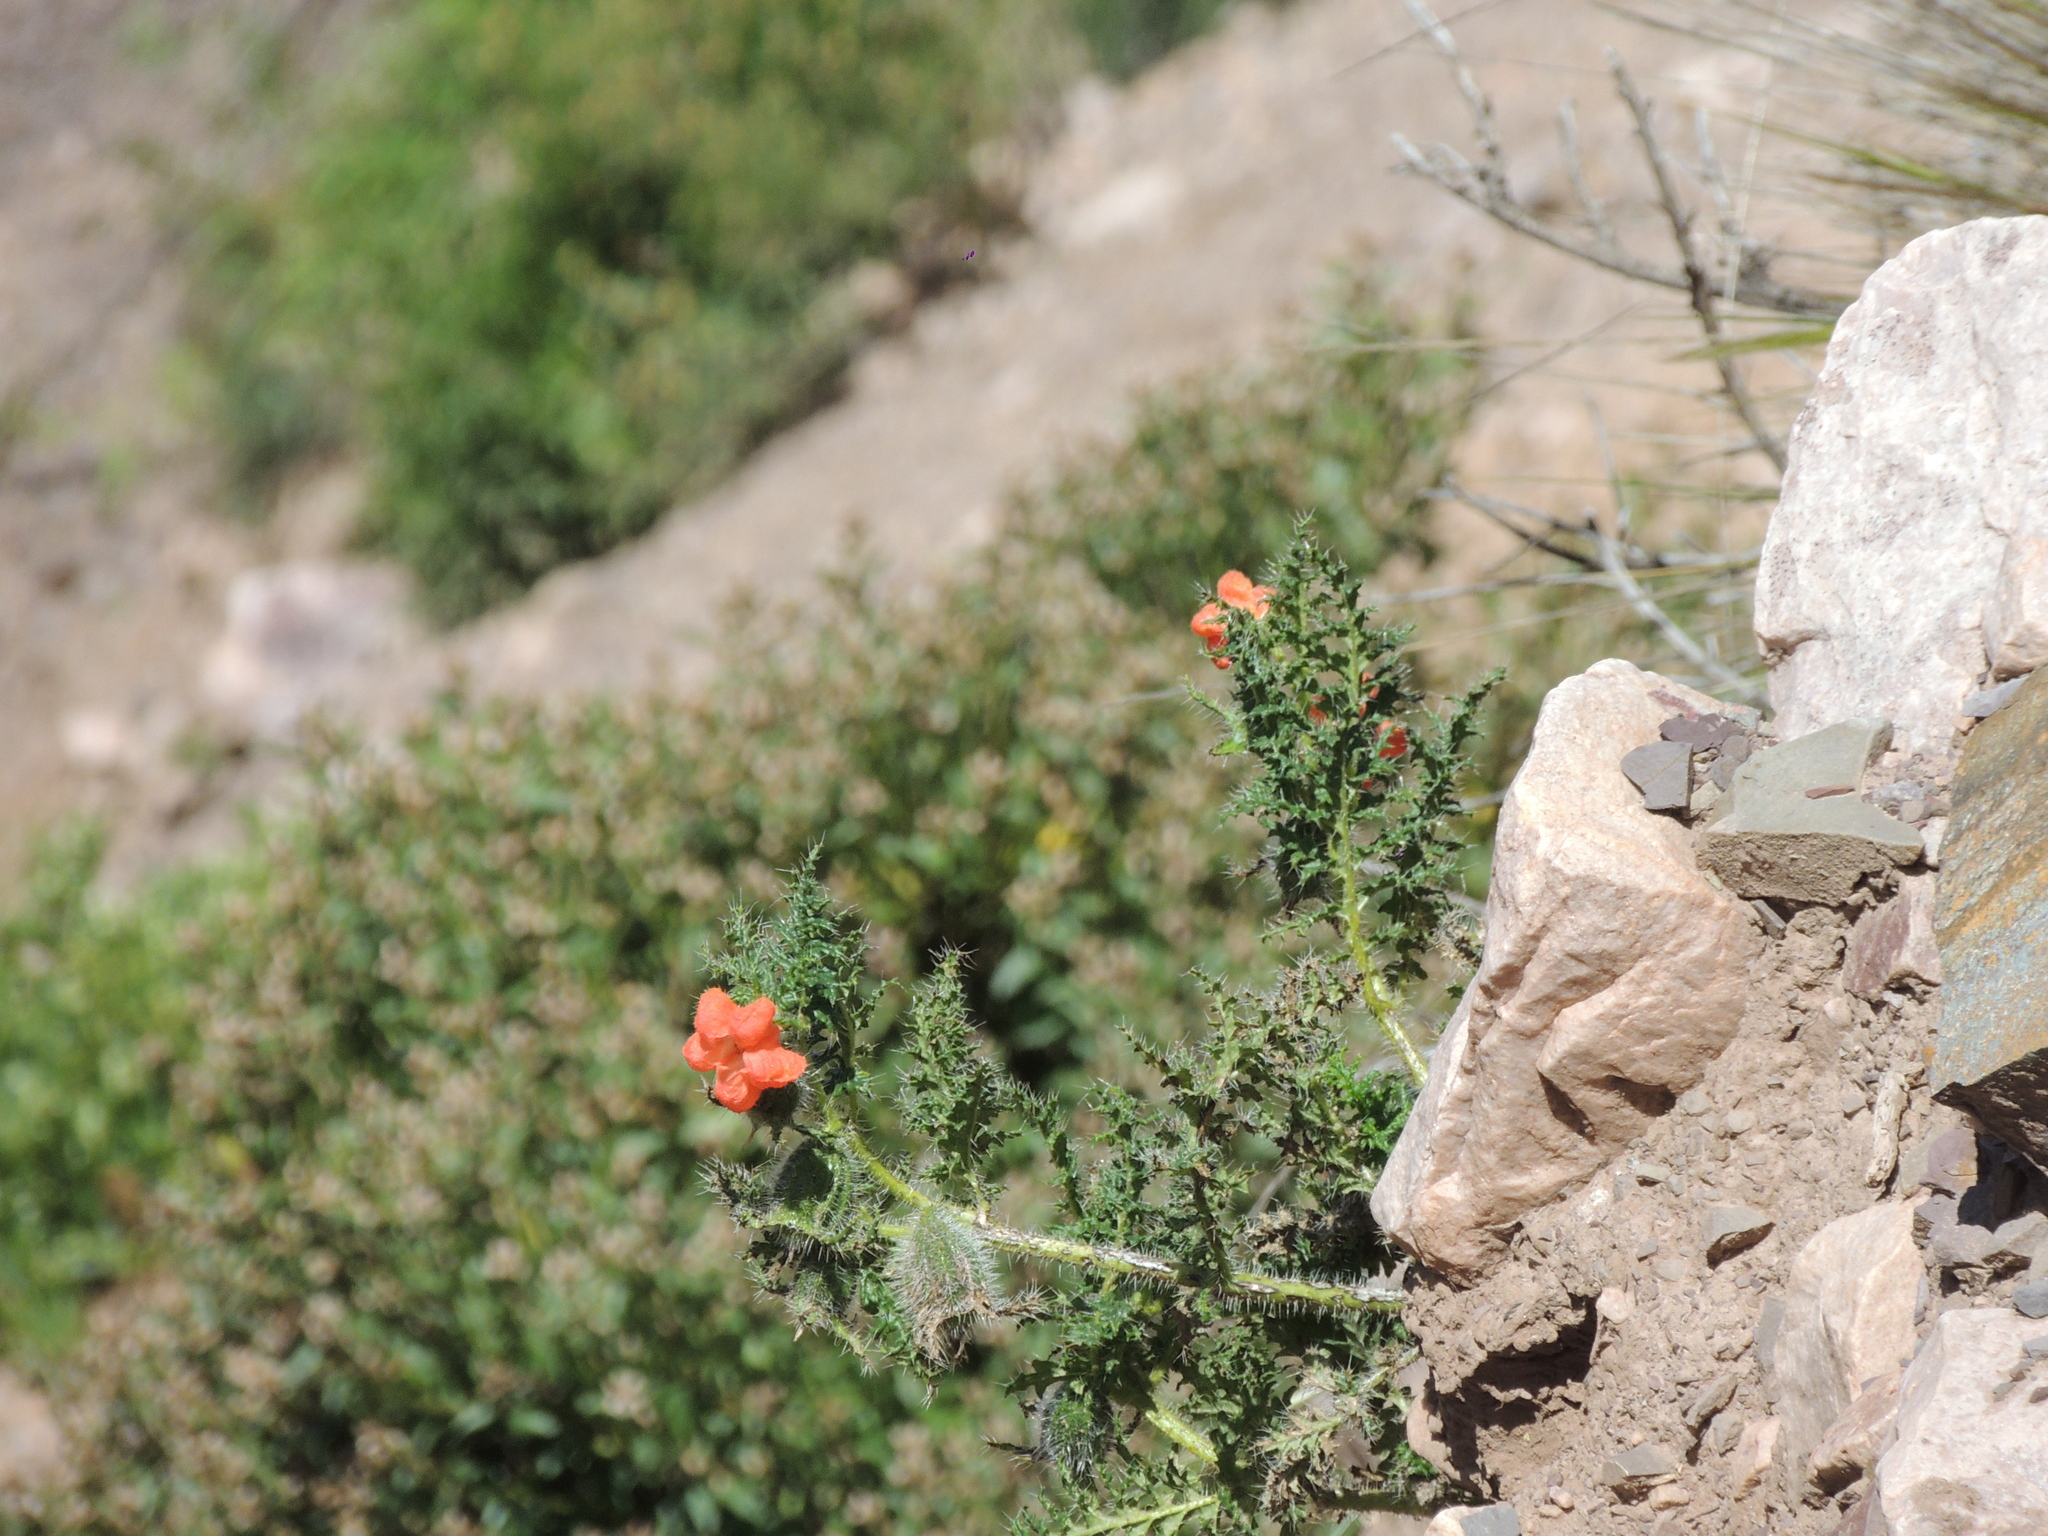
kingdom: Plantae
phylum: Tracheophyta
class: Magnoliopsida
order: Cornales
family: Loasaceae
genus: Caiophora
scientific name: Caiophora chuquitensis
